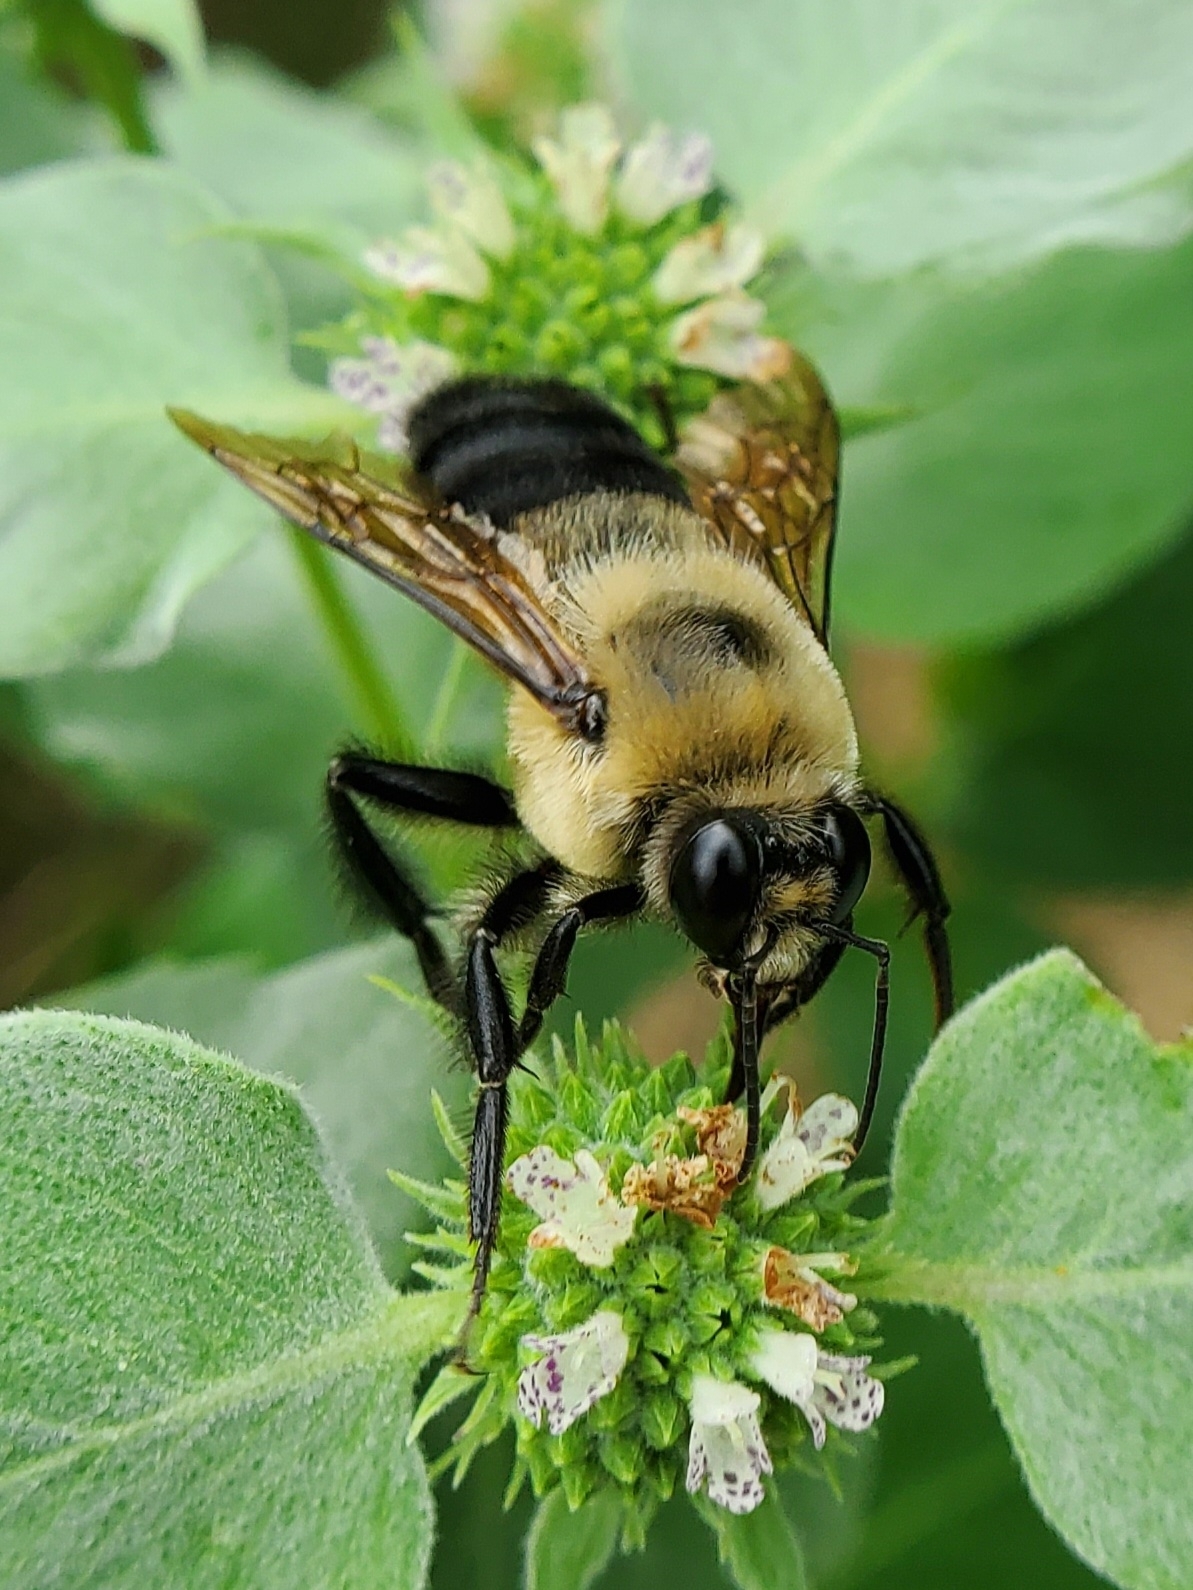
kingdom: Animalia
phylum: Arthropoda
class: Insecta
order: Hymenoptera
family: Apidae
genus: Bombus
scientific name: Bombus griseocollis
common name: Brown-belted bumble bee
